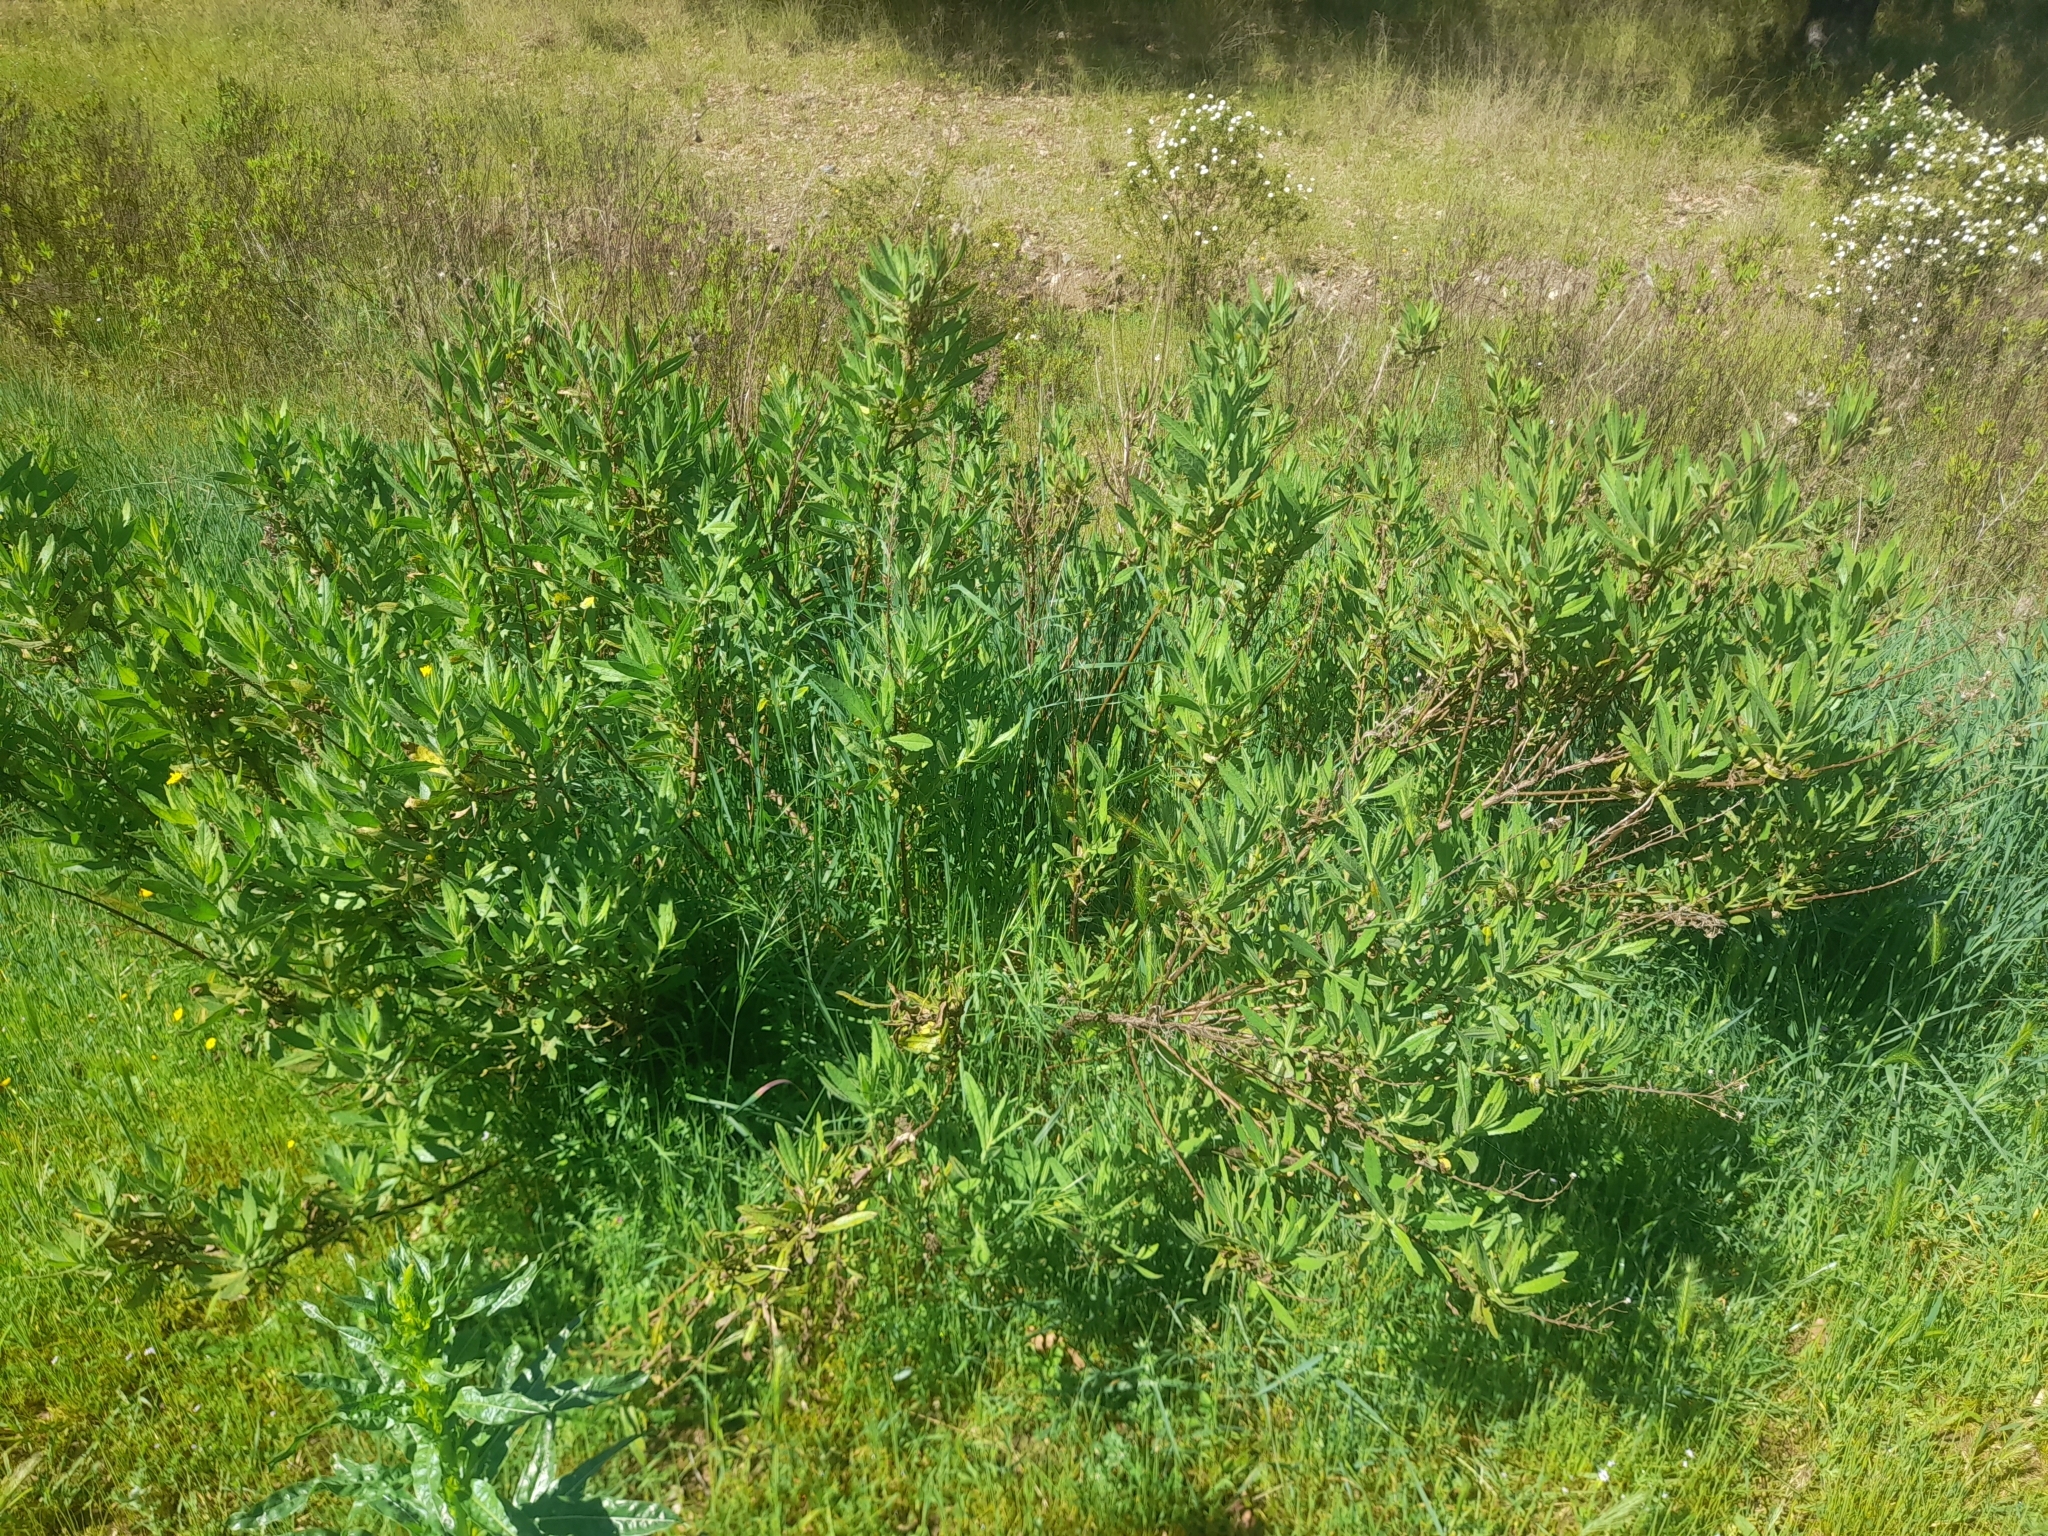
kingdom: Plantae
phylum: Tracheophyta
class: Magnoliopsida
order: Asterales
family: Asteraceae
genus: Dittrichia
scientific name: Dittrichia viscosa
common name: Woody fleabane
